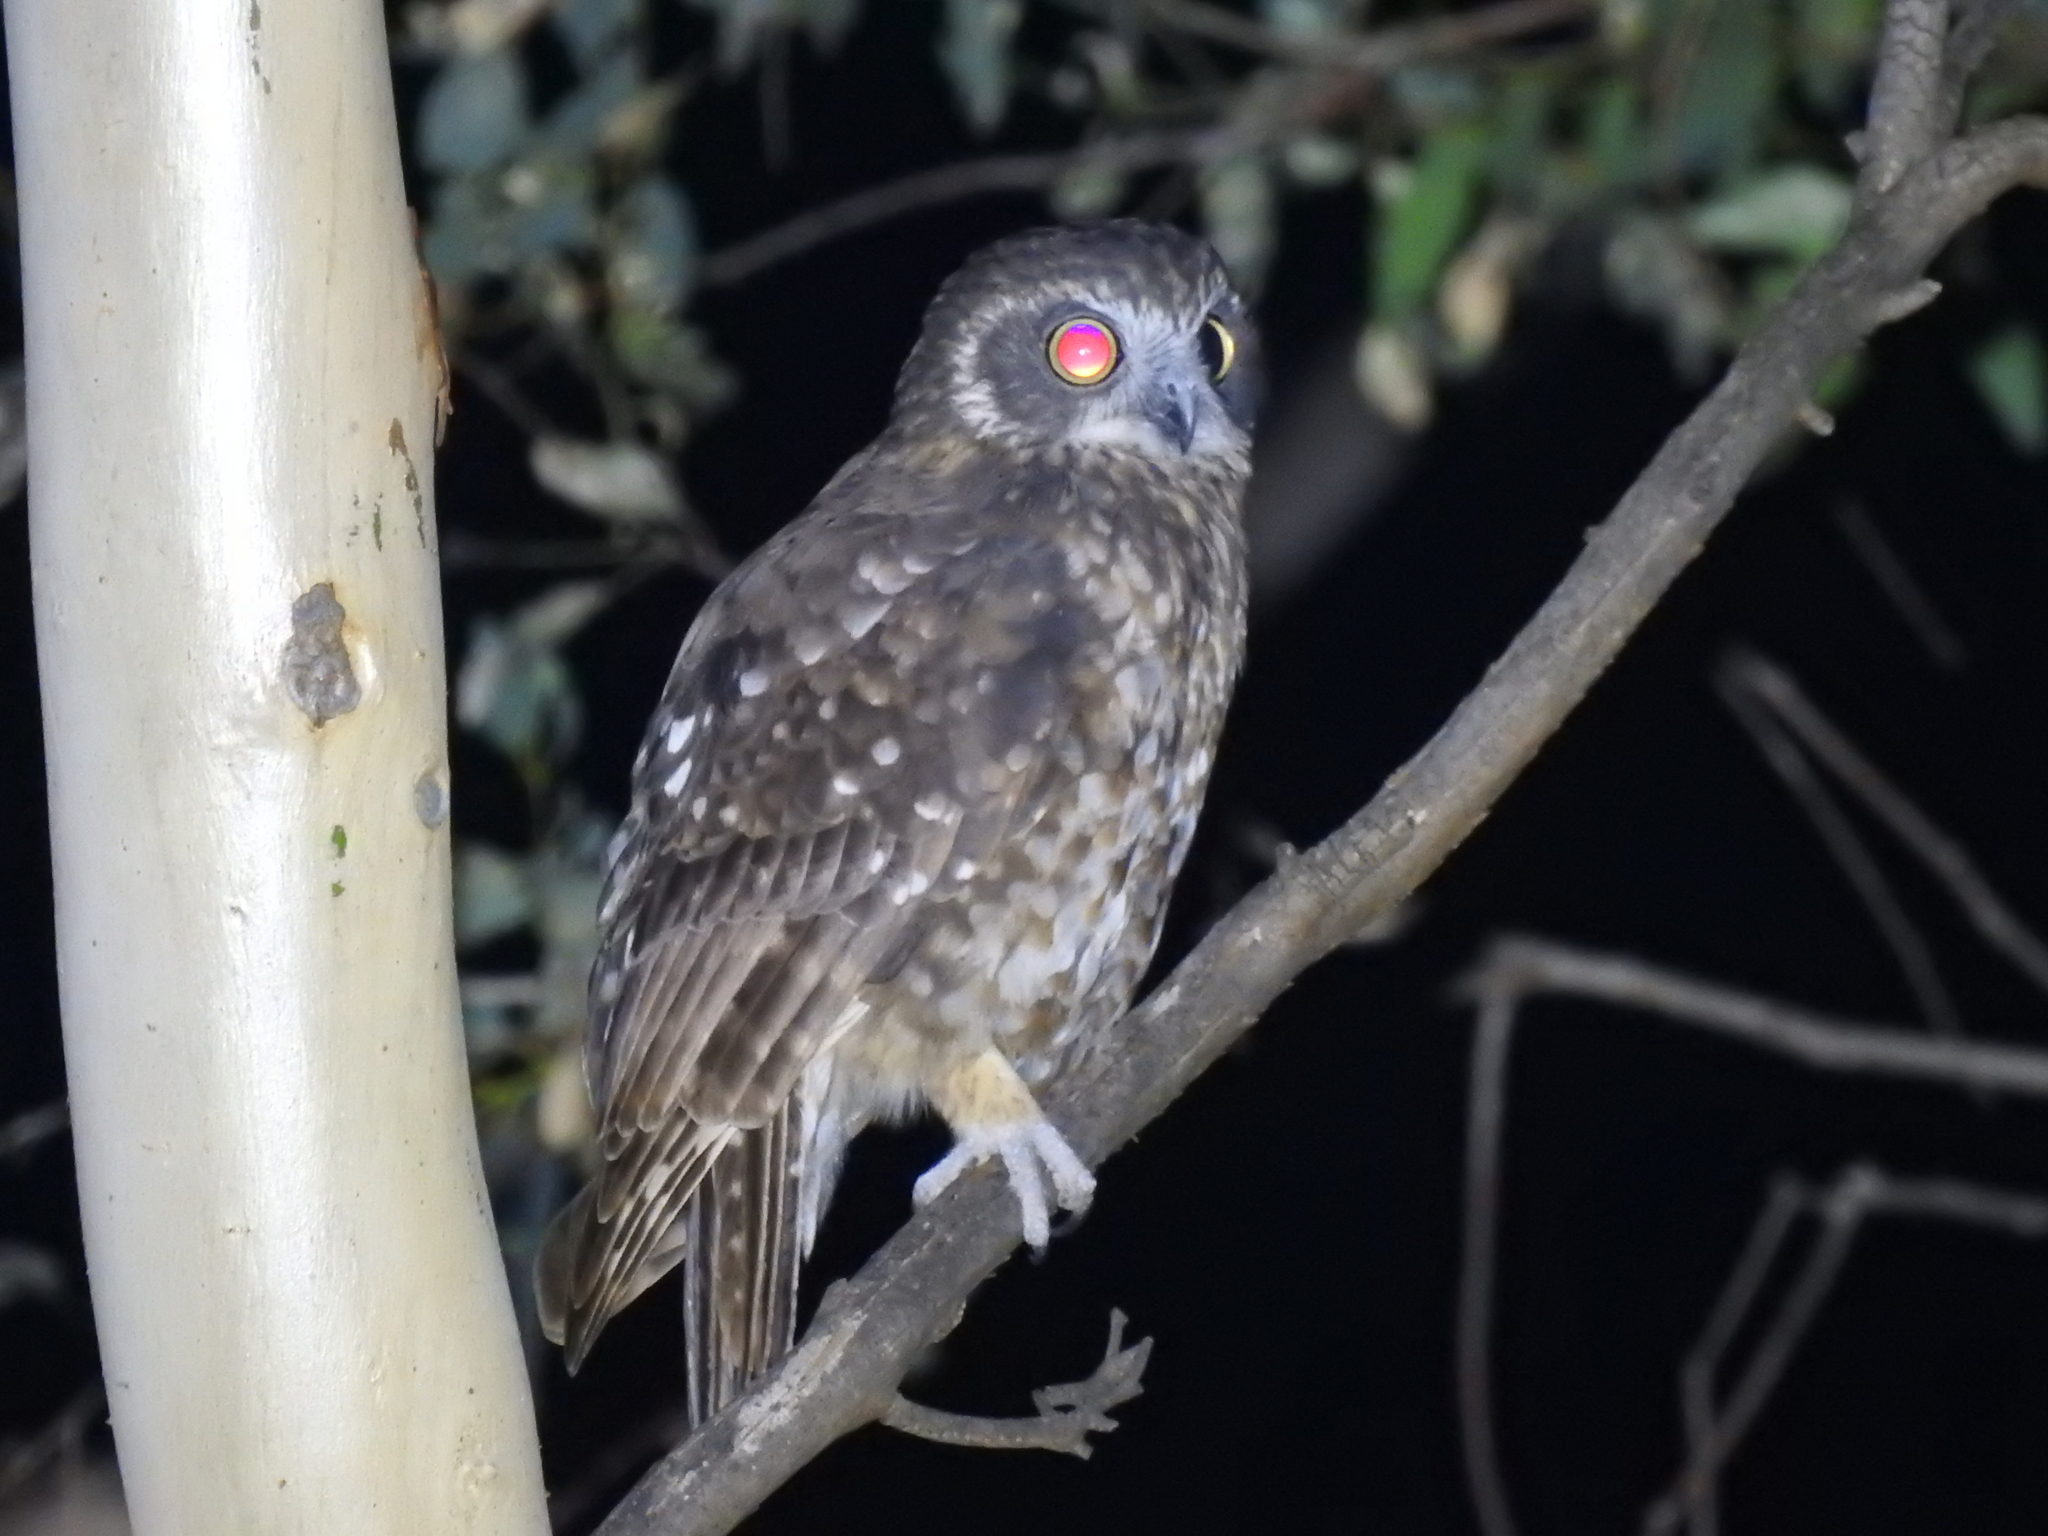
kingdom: Animalia
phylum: Chordata
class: Aves
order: Strigiformes
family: Strigidae
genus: Ninox
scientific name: Ninox boobook
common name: Southern boobook
